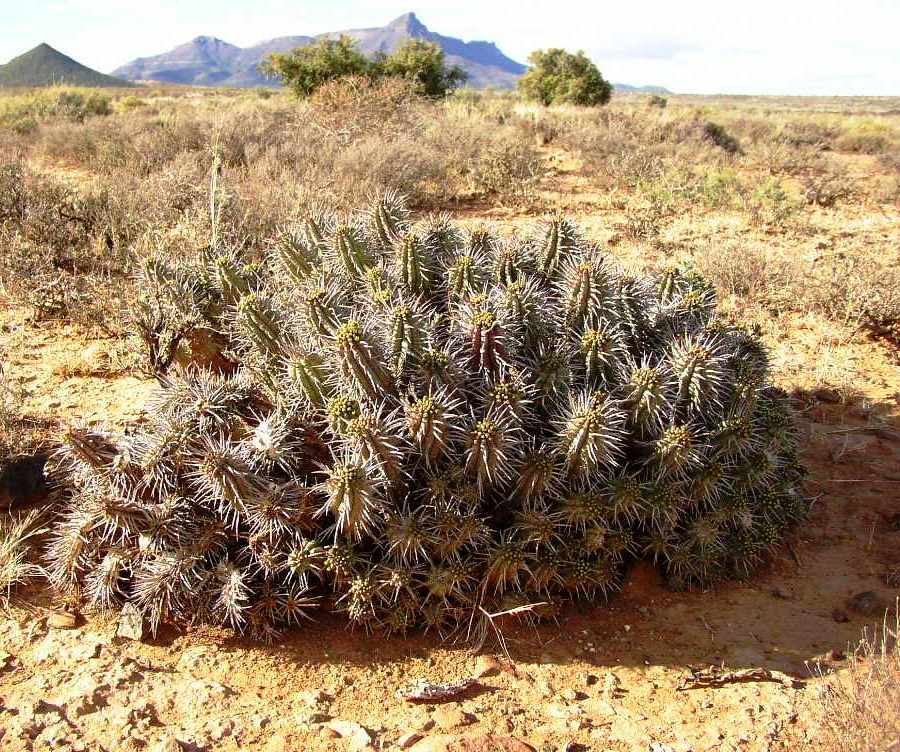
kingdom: Plantae
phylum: Tracheophyta
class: Magnoliopsida
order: Malpighiales
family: Euphorbiaceae
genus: Euphorbia
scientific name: Euphorbia ferox
